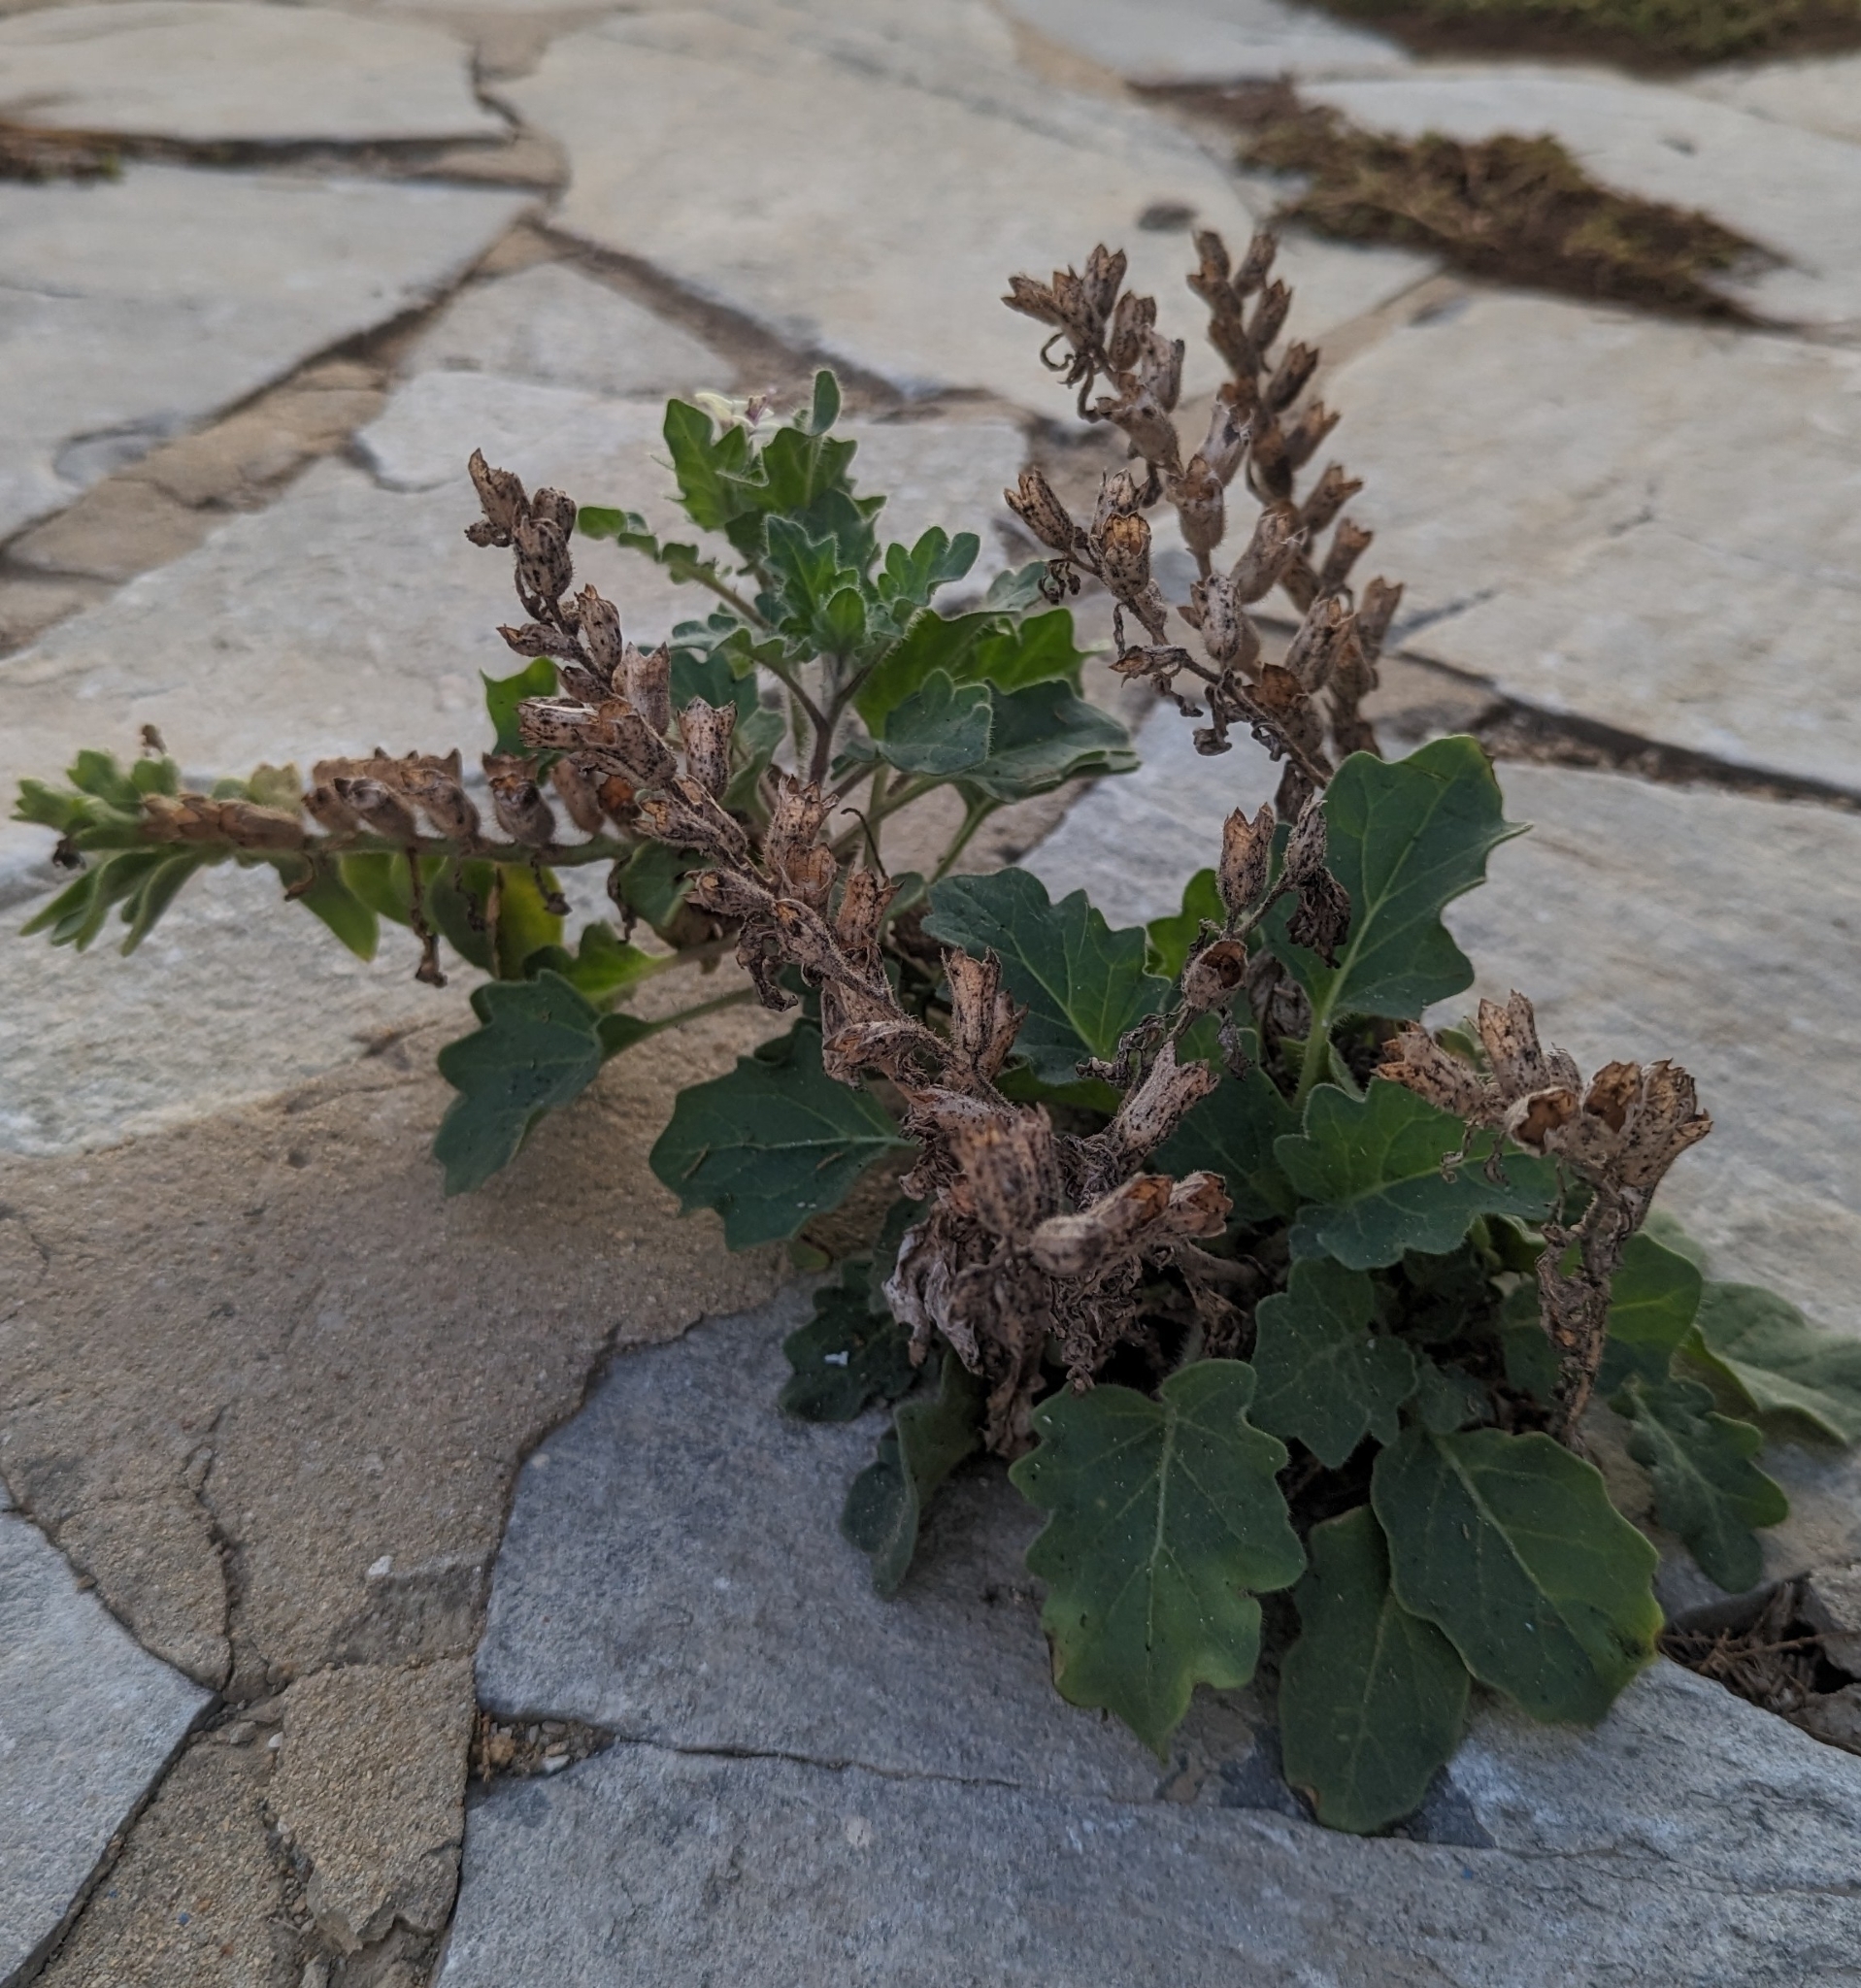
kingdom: Plantae
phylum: Tracheophyta
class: Magnoliopsida
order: Solanales
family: Solanaceae
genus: Hyoscyamus
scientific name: Hyoscyamus albus
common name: White henbane
